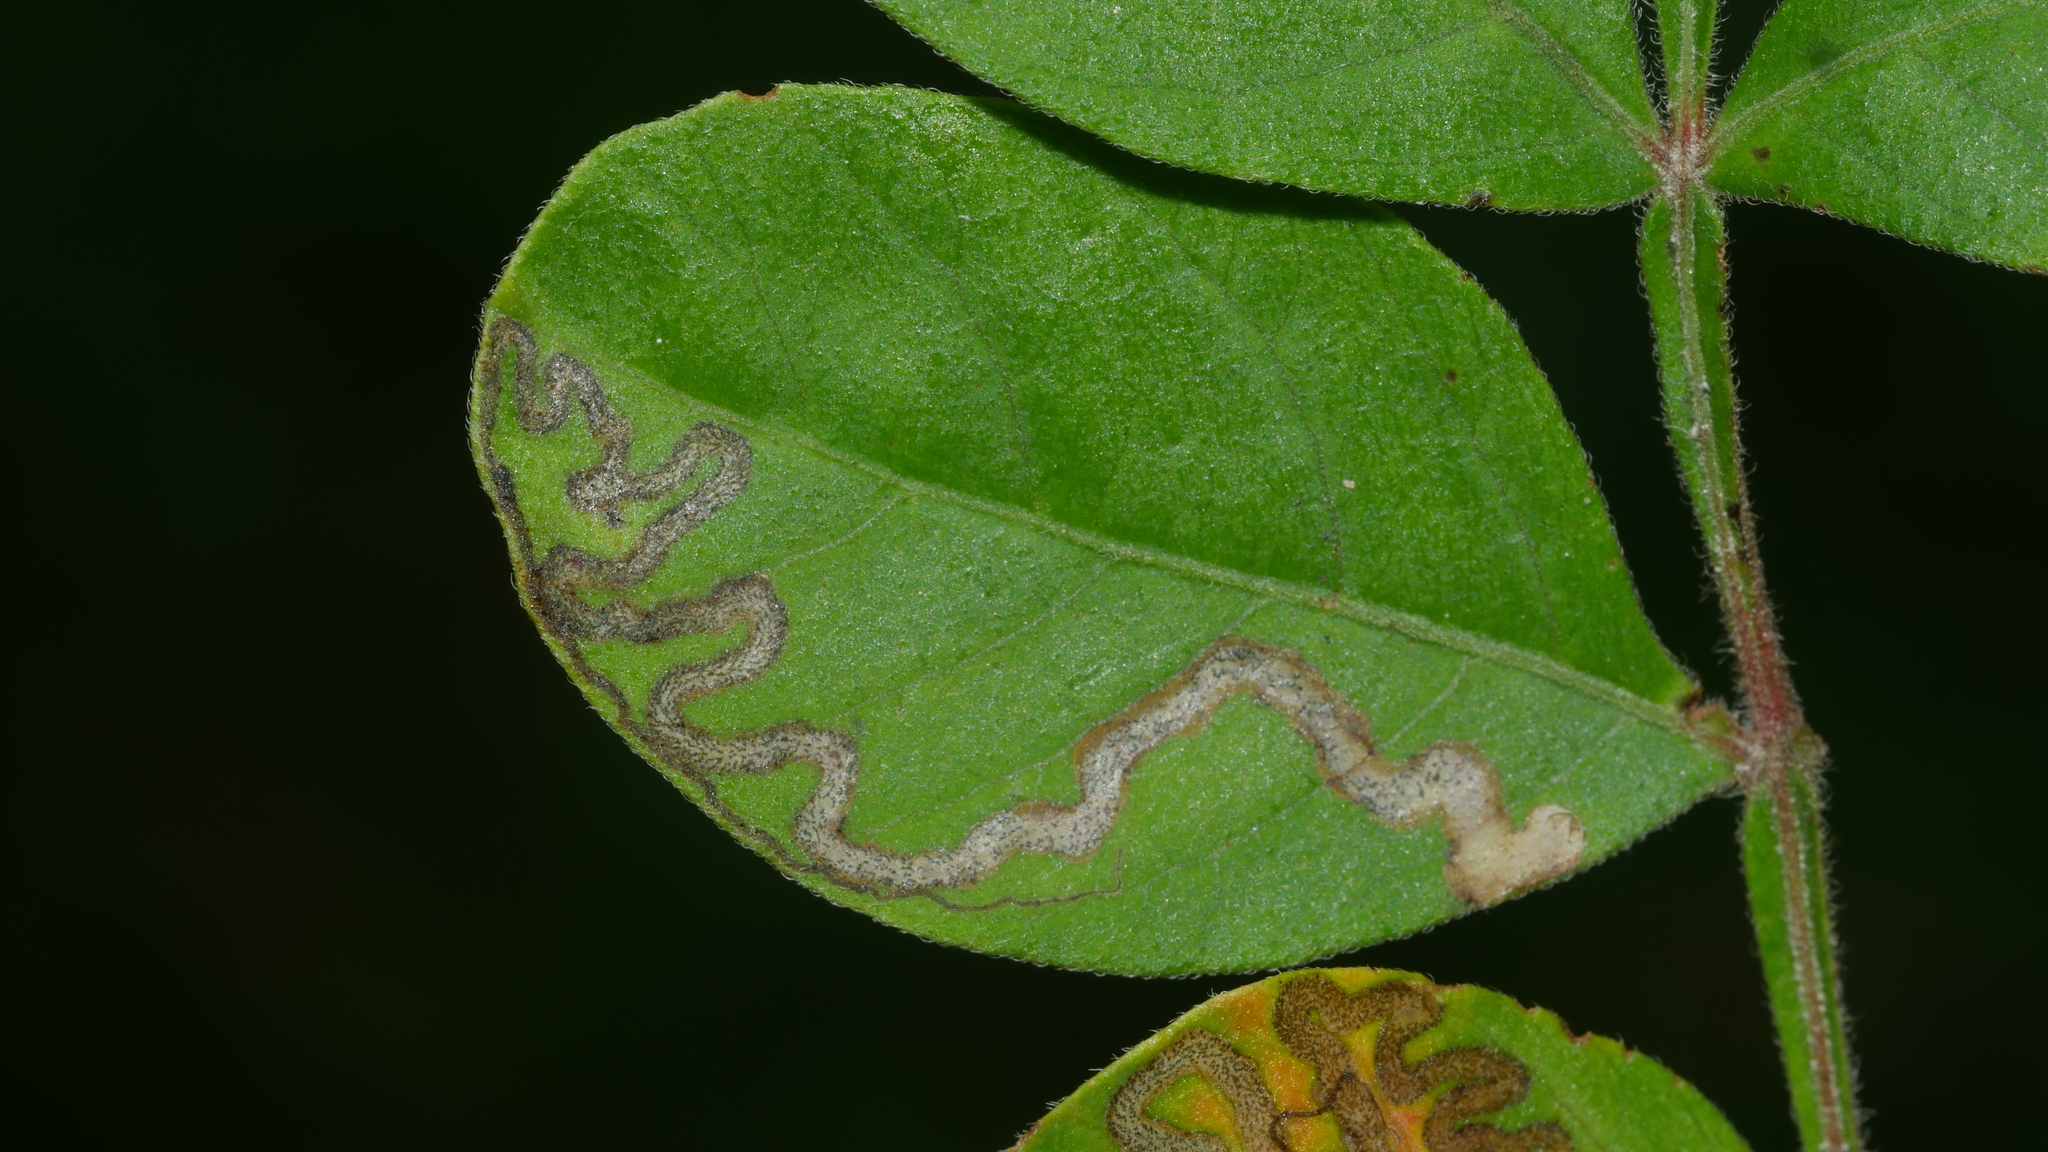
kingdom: Animalia
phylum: Arthropoda
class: Insecta
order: Lepidoptera
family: Nepticulidae
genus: Stigmella
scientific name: Stigmella intermedia
